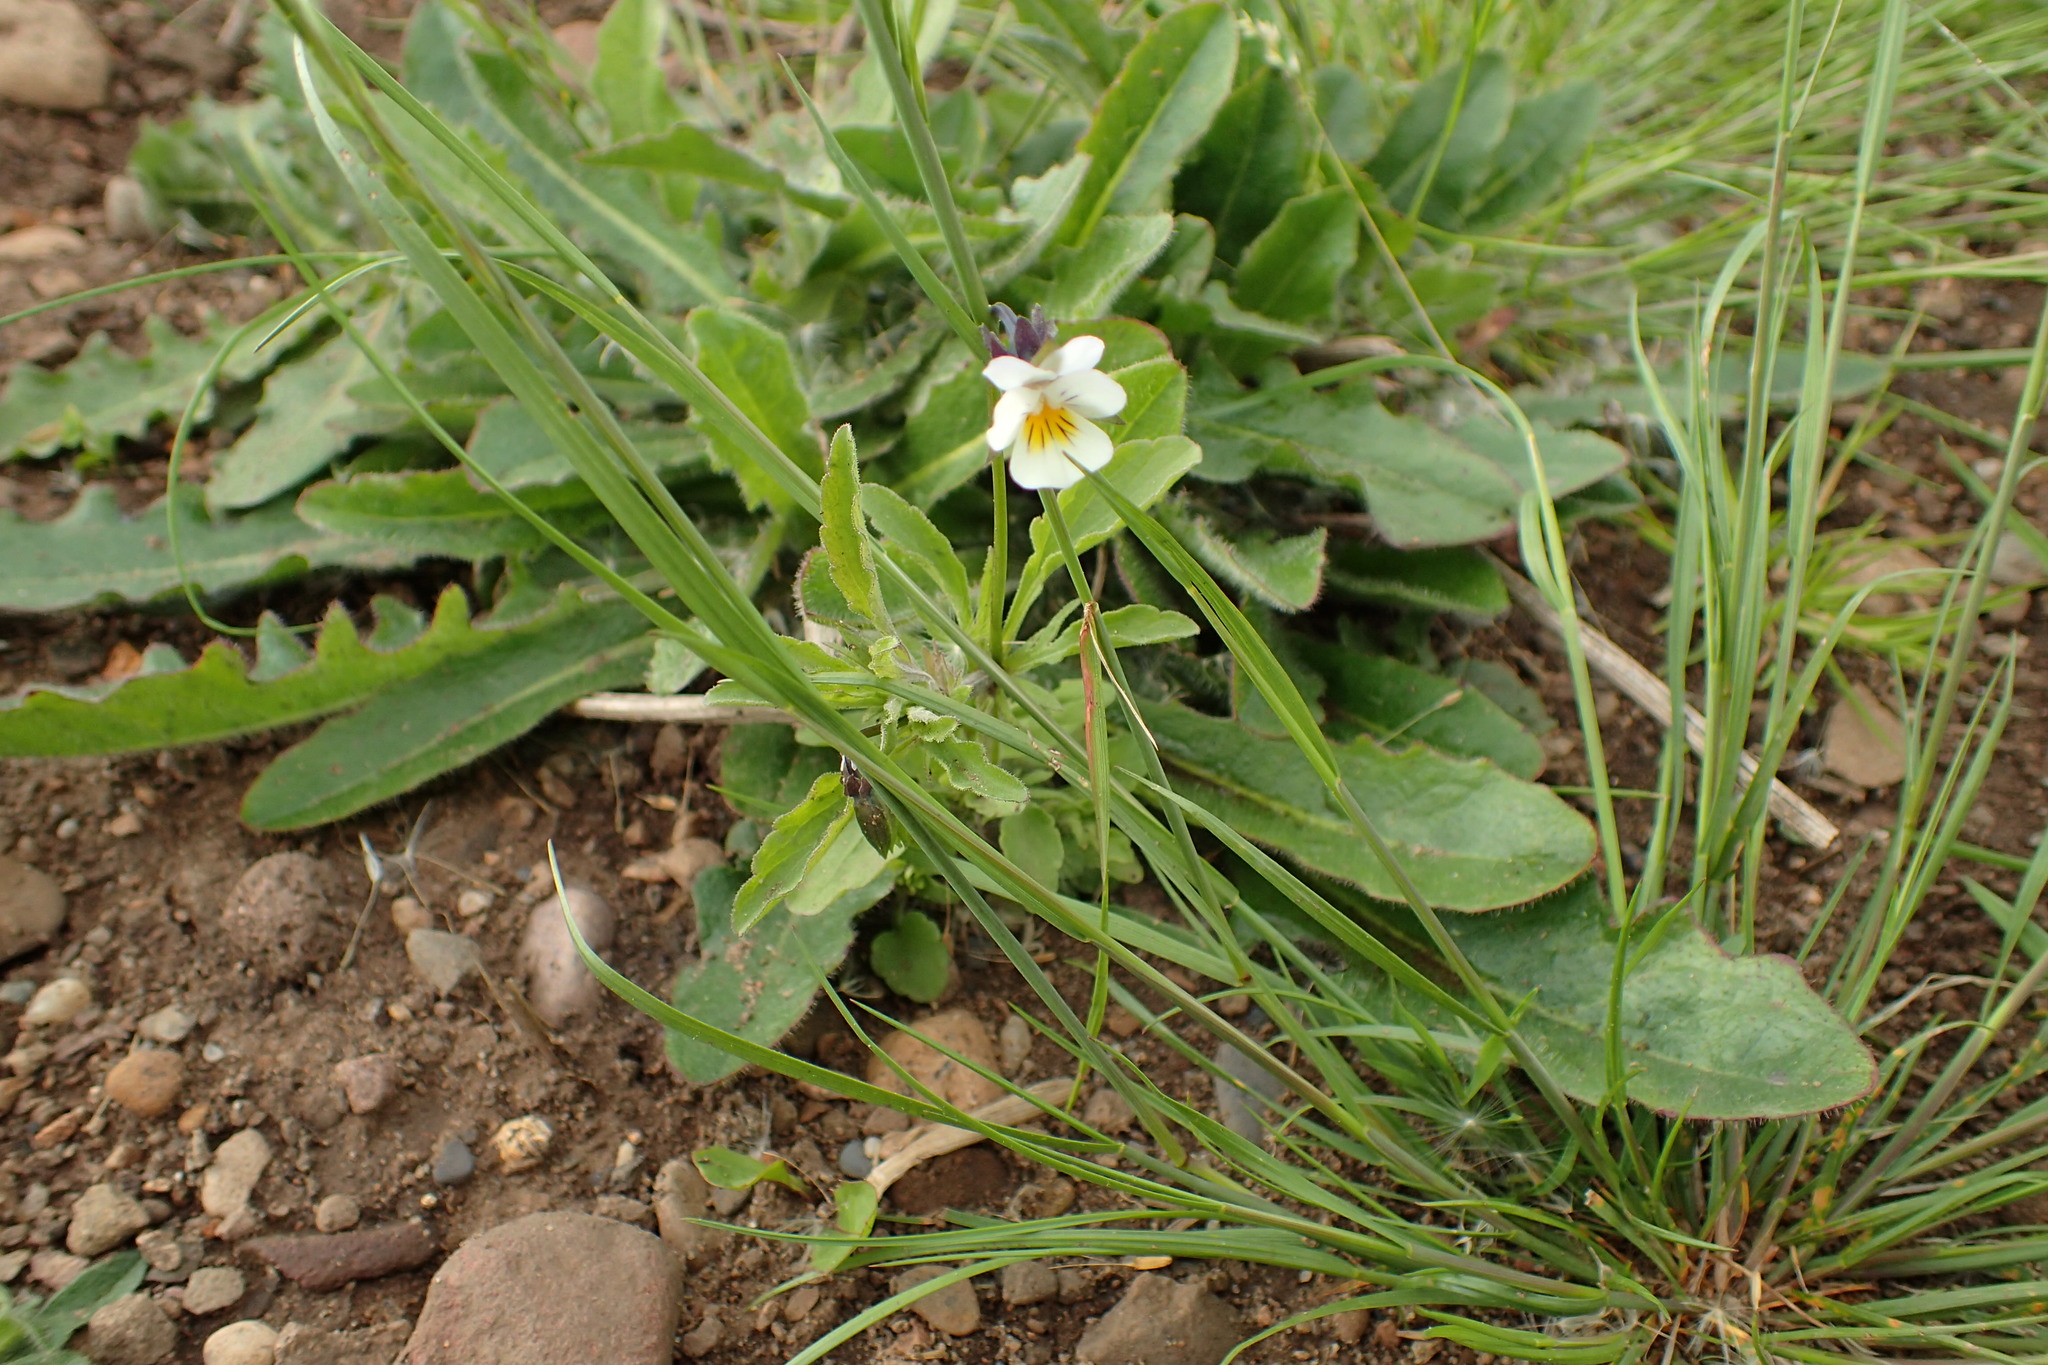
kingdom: Plantae
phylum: Tracheophyta
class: Magnoliopsida
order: Malpighiales
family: Violaceae
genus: Viola
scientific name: Viola arvensis
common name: Field pansy
